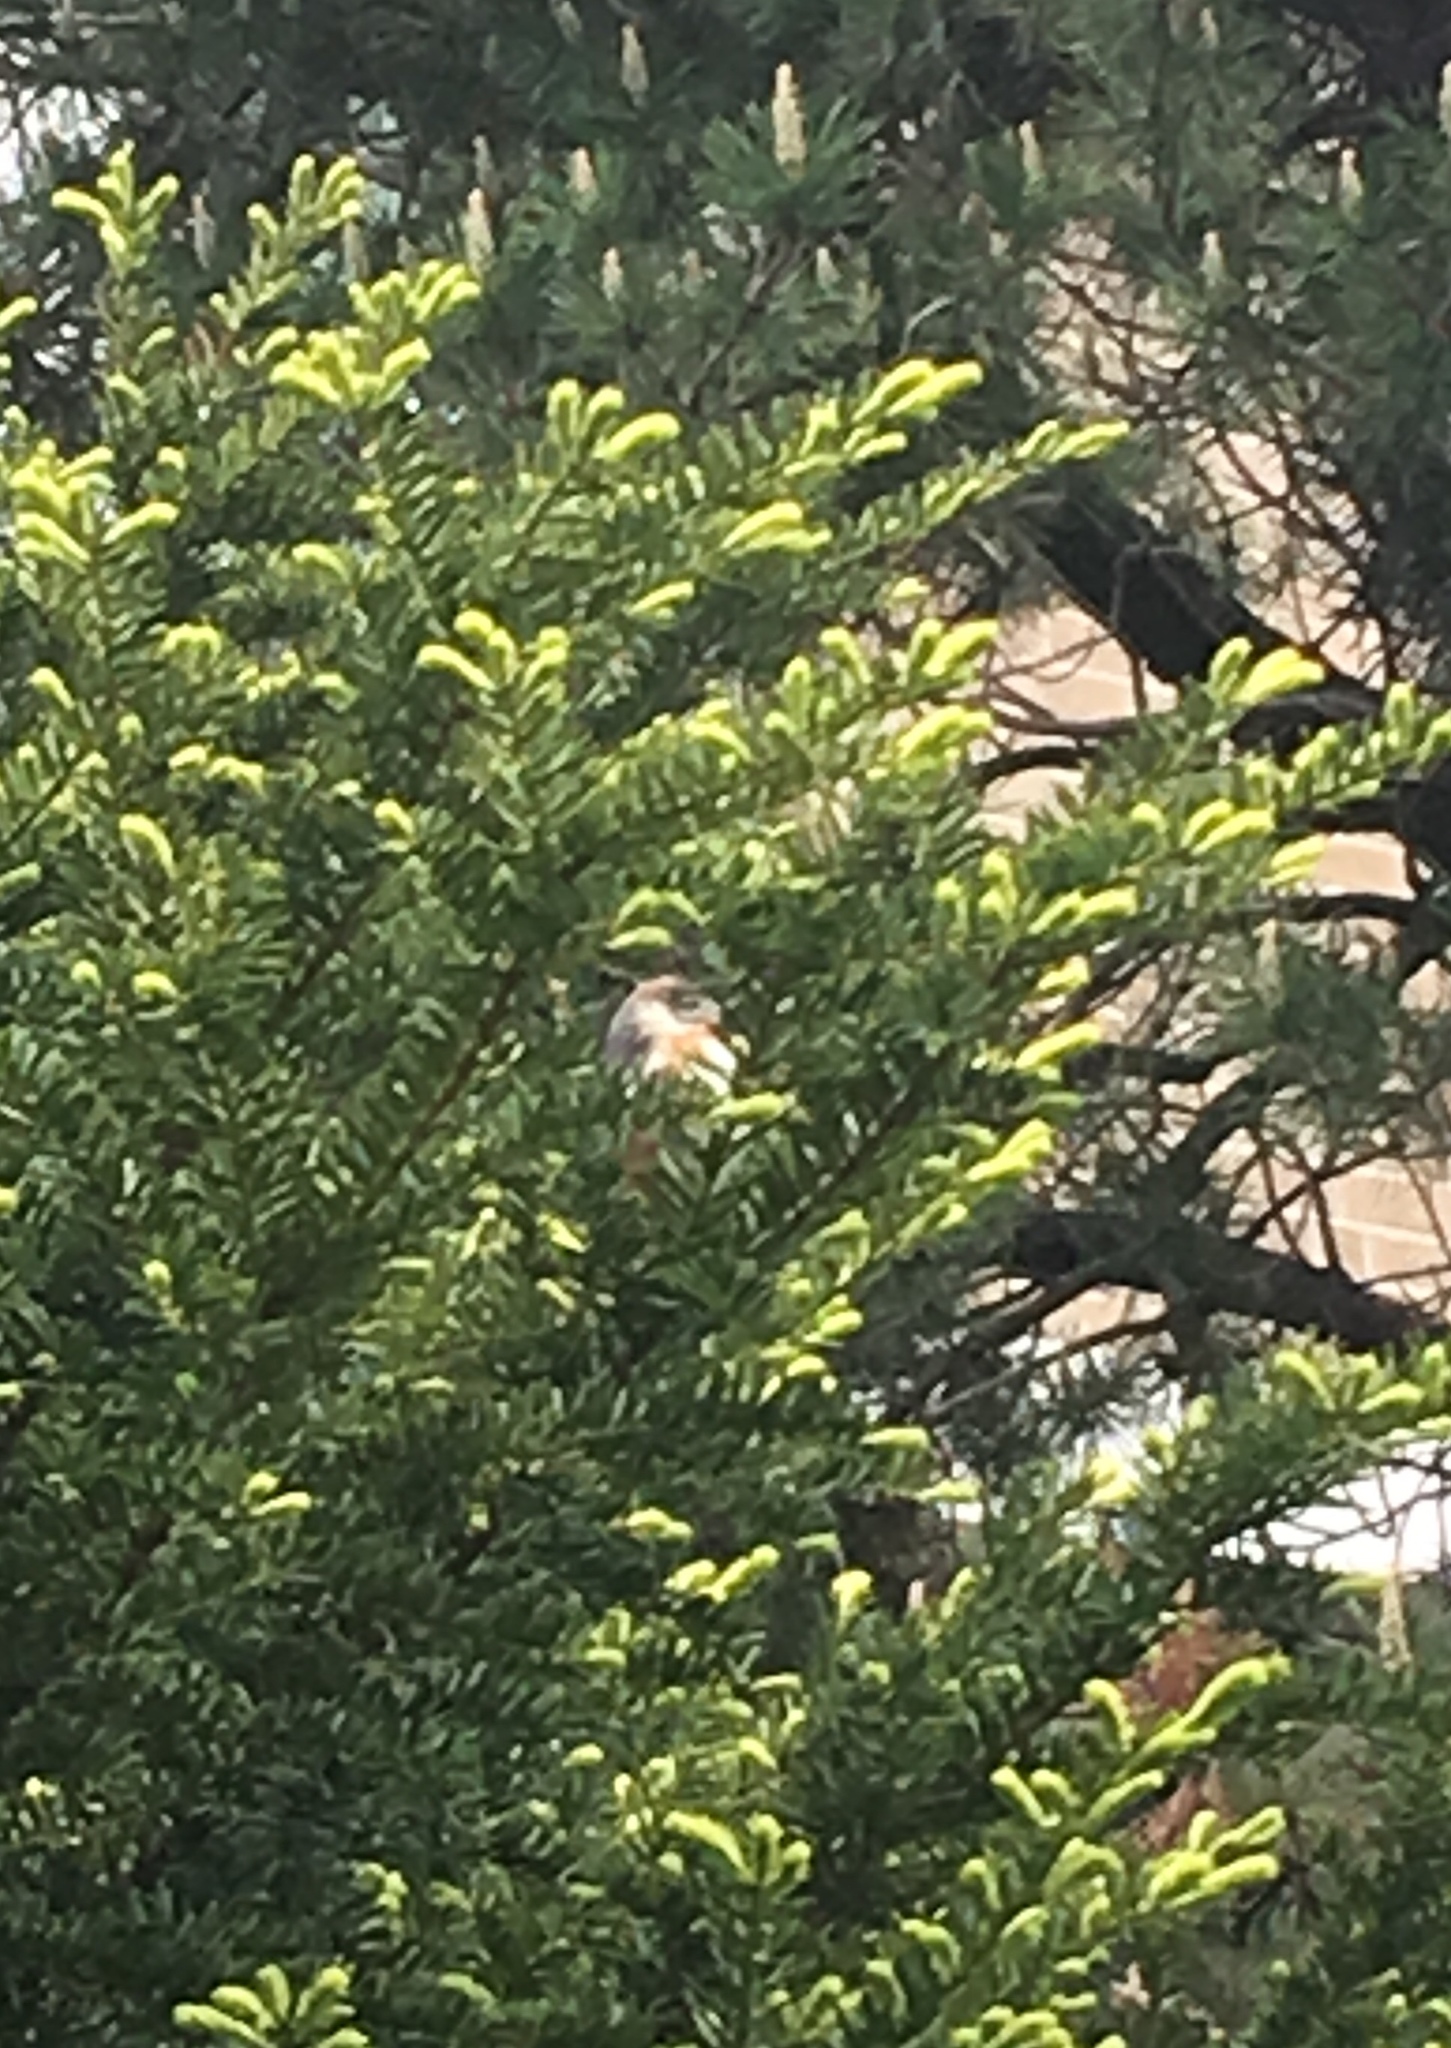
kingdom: Animalia
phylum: Chordata
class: Aves
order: Passeriformes
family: Parulidae
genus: Setophaga
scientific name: Setophaga castanea
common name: Bay-breasted warbler
